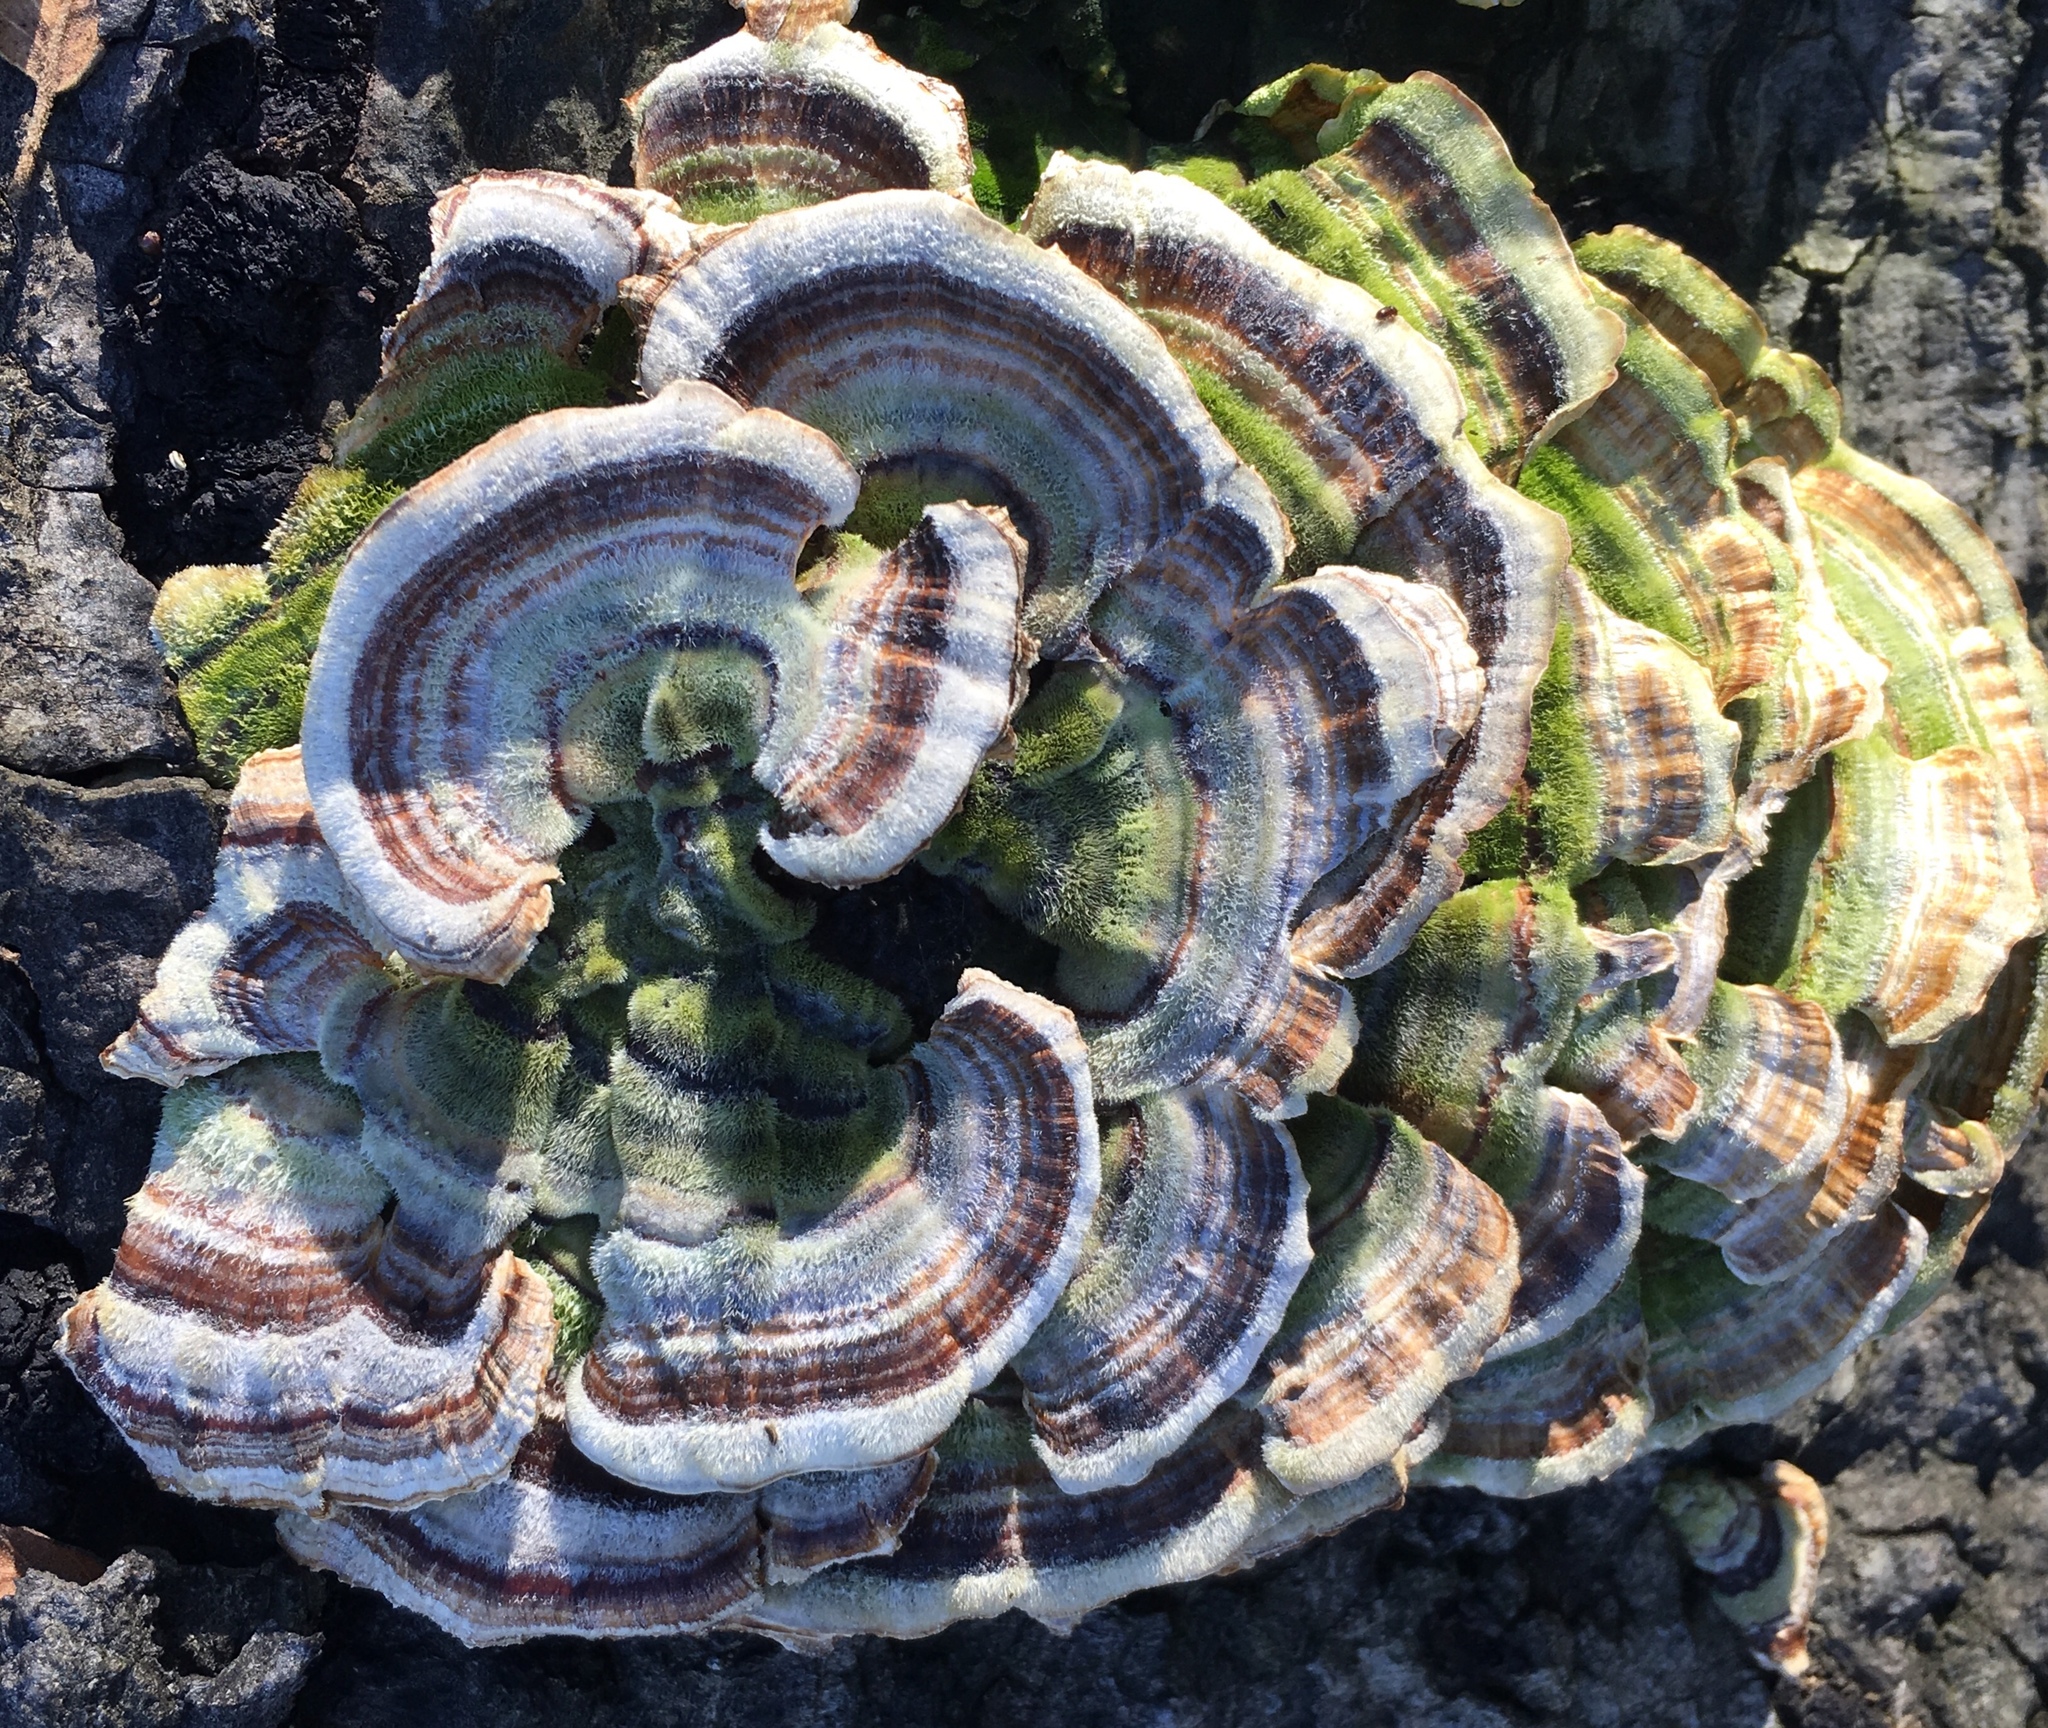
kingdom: Fungi
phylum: Basidiomycota
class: Agaricomycetes
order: Polyporales
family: Polyporaceae
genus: Trametes
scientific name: Trametes versicolor
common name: Turkeytail
